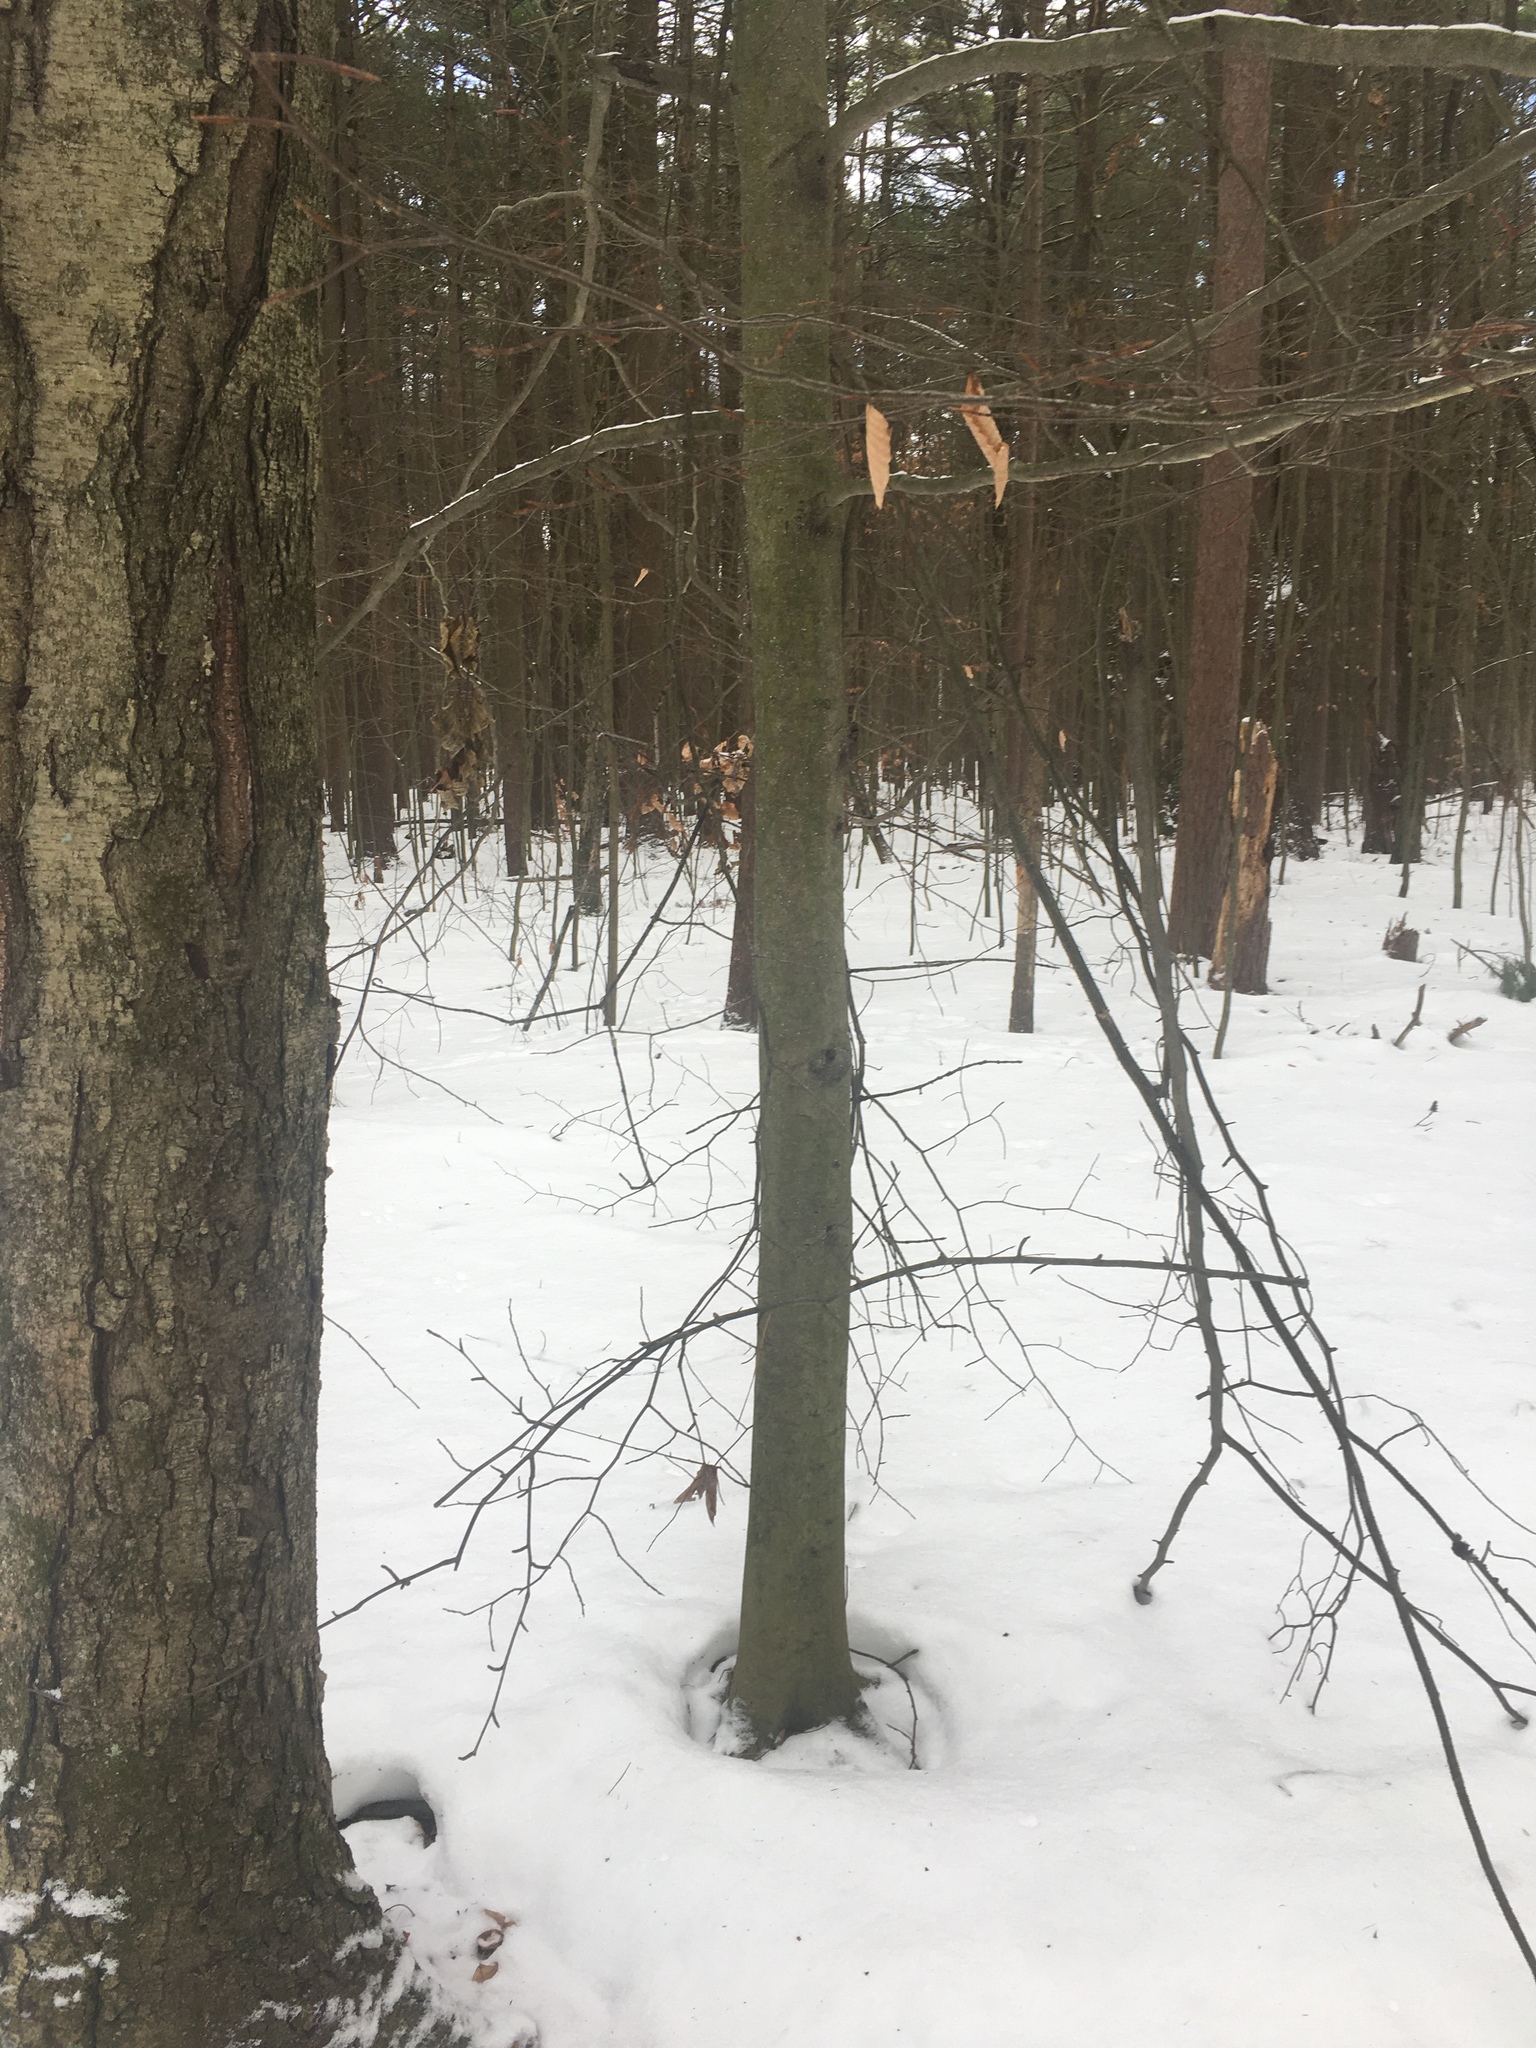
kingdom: Plantae
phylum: Tracheophyta
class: Magnoliopsida
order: Fagales
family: Fagaceae
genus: Fagus
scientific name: Fagus grandifolia
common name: American beech
